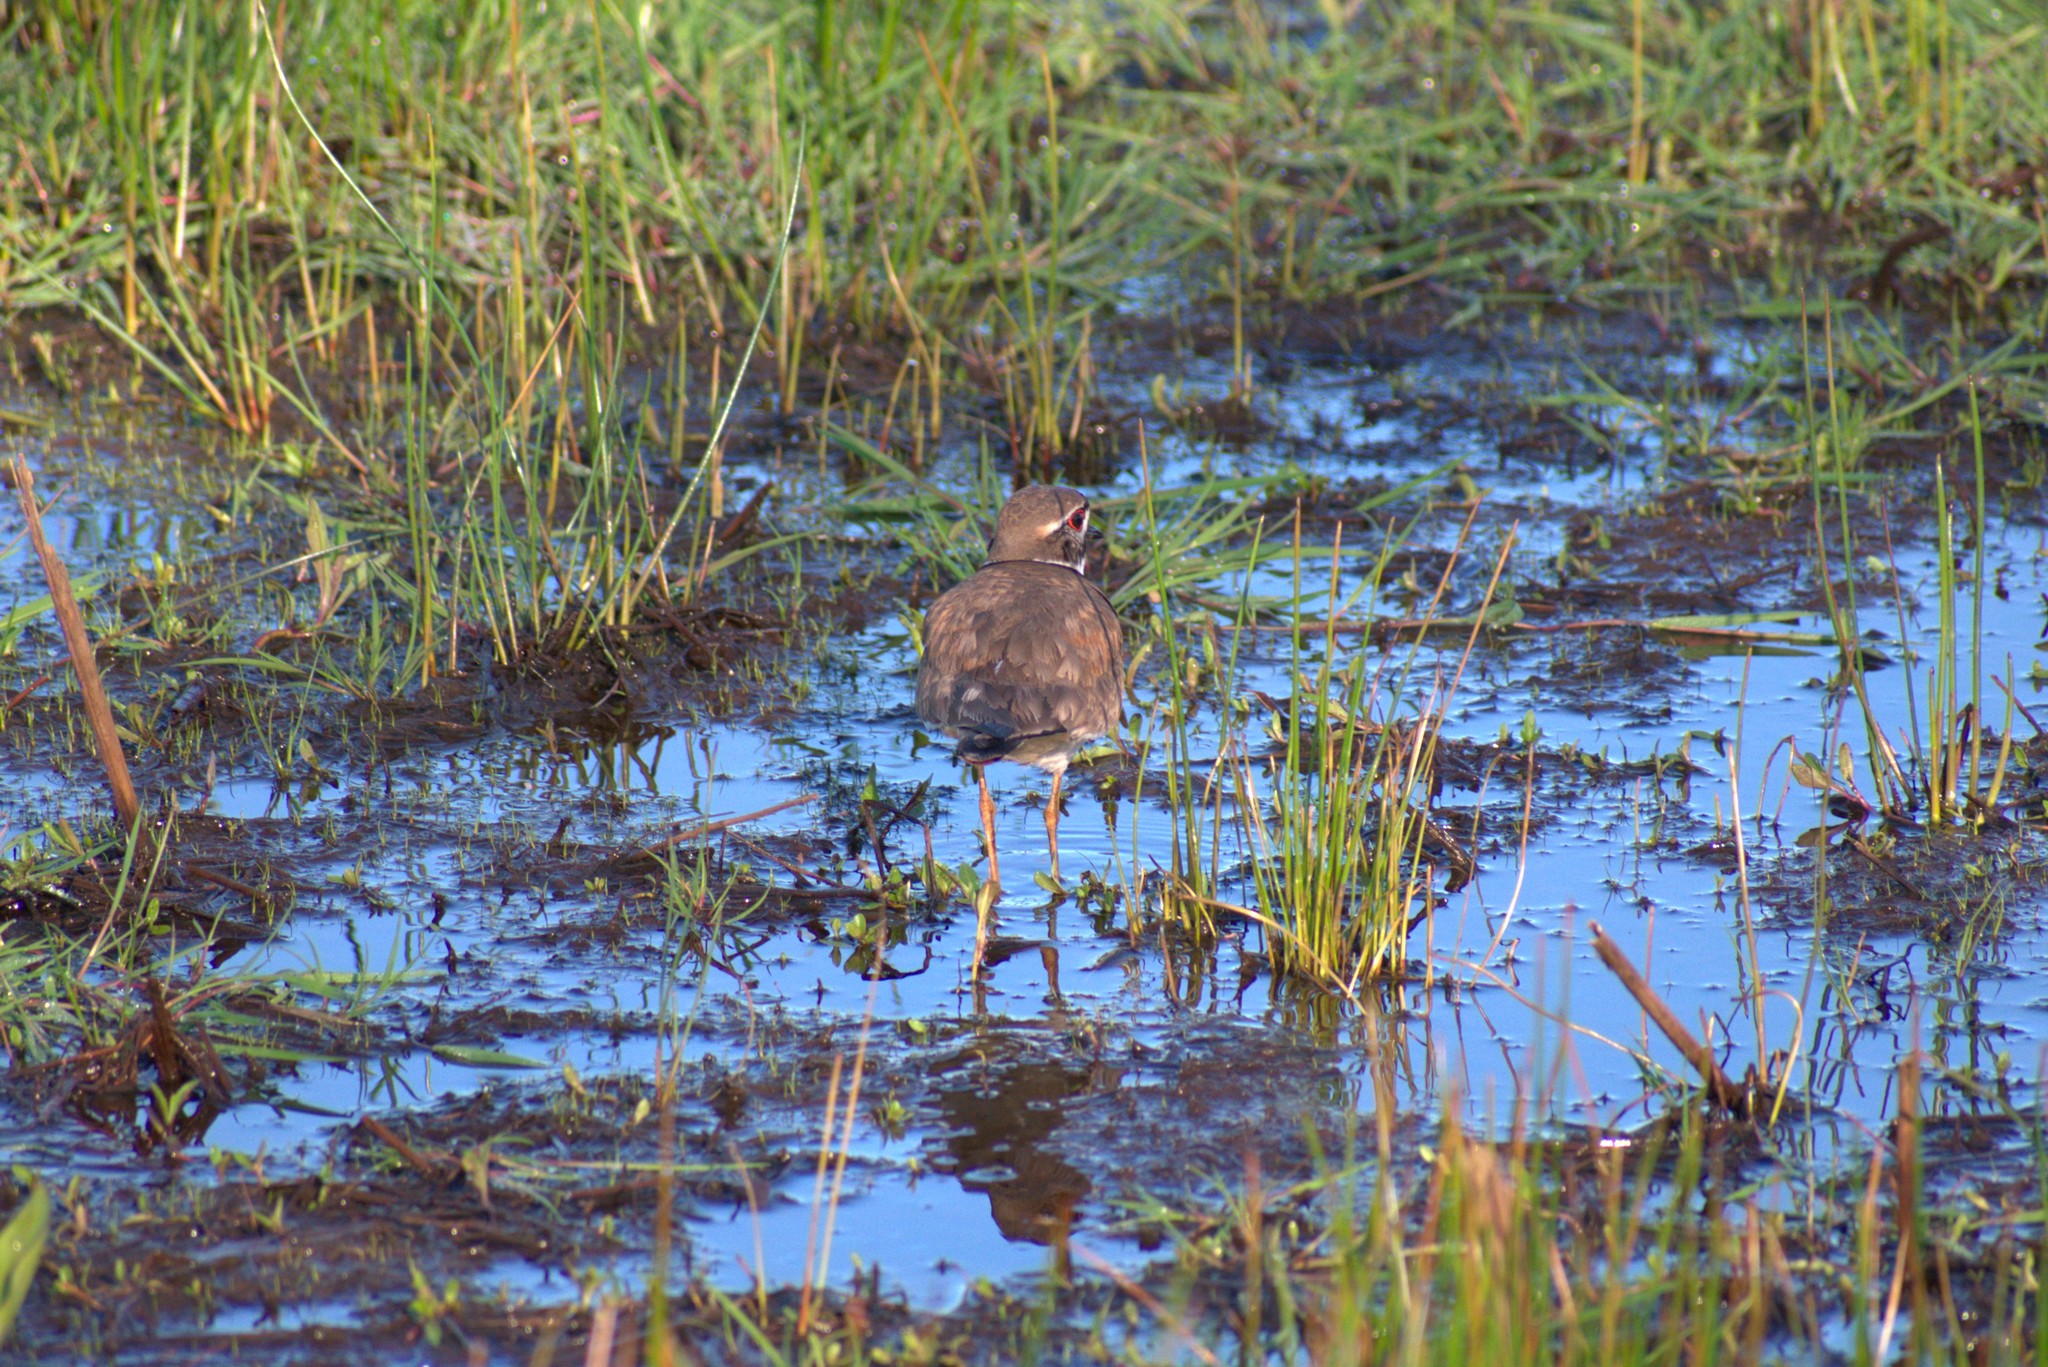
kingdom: Animalia
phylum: Chordata
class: Aves
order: Charadriiformes
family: Charadriidae
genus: Charadrius
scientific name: Charadrius vociferus
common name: Killdeer
